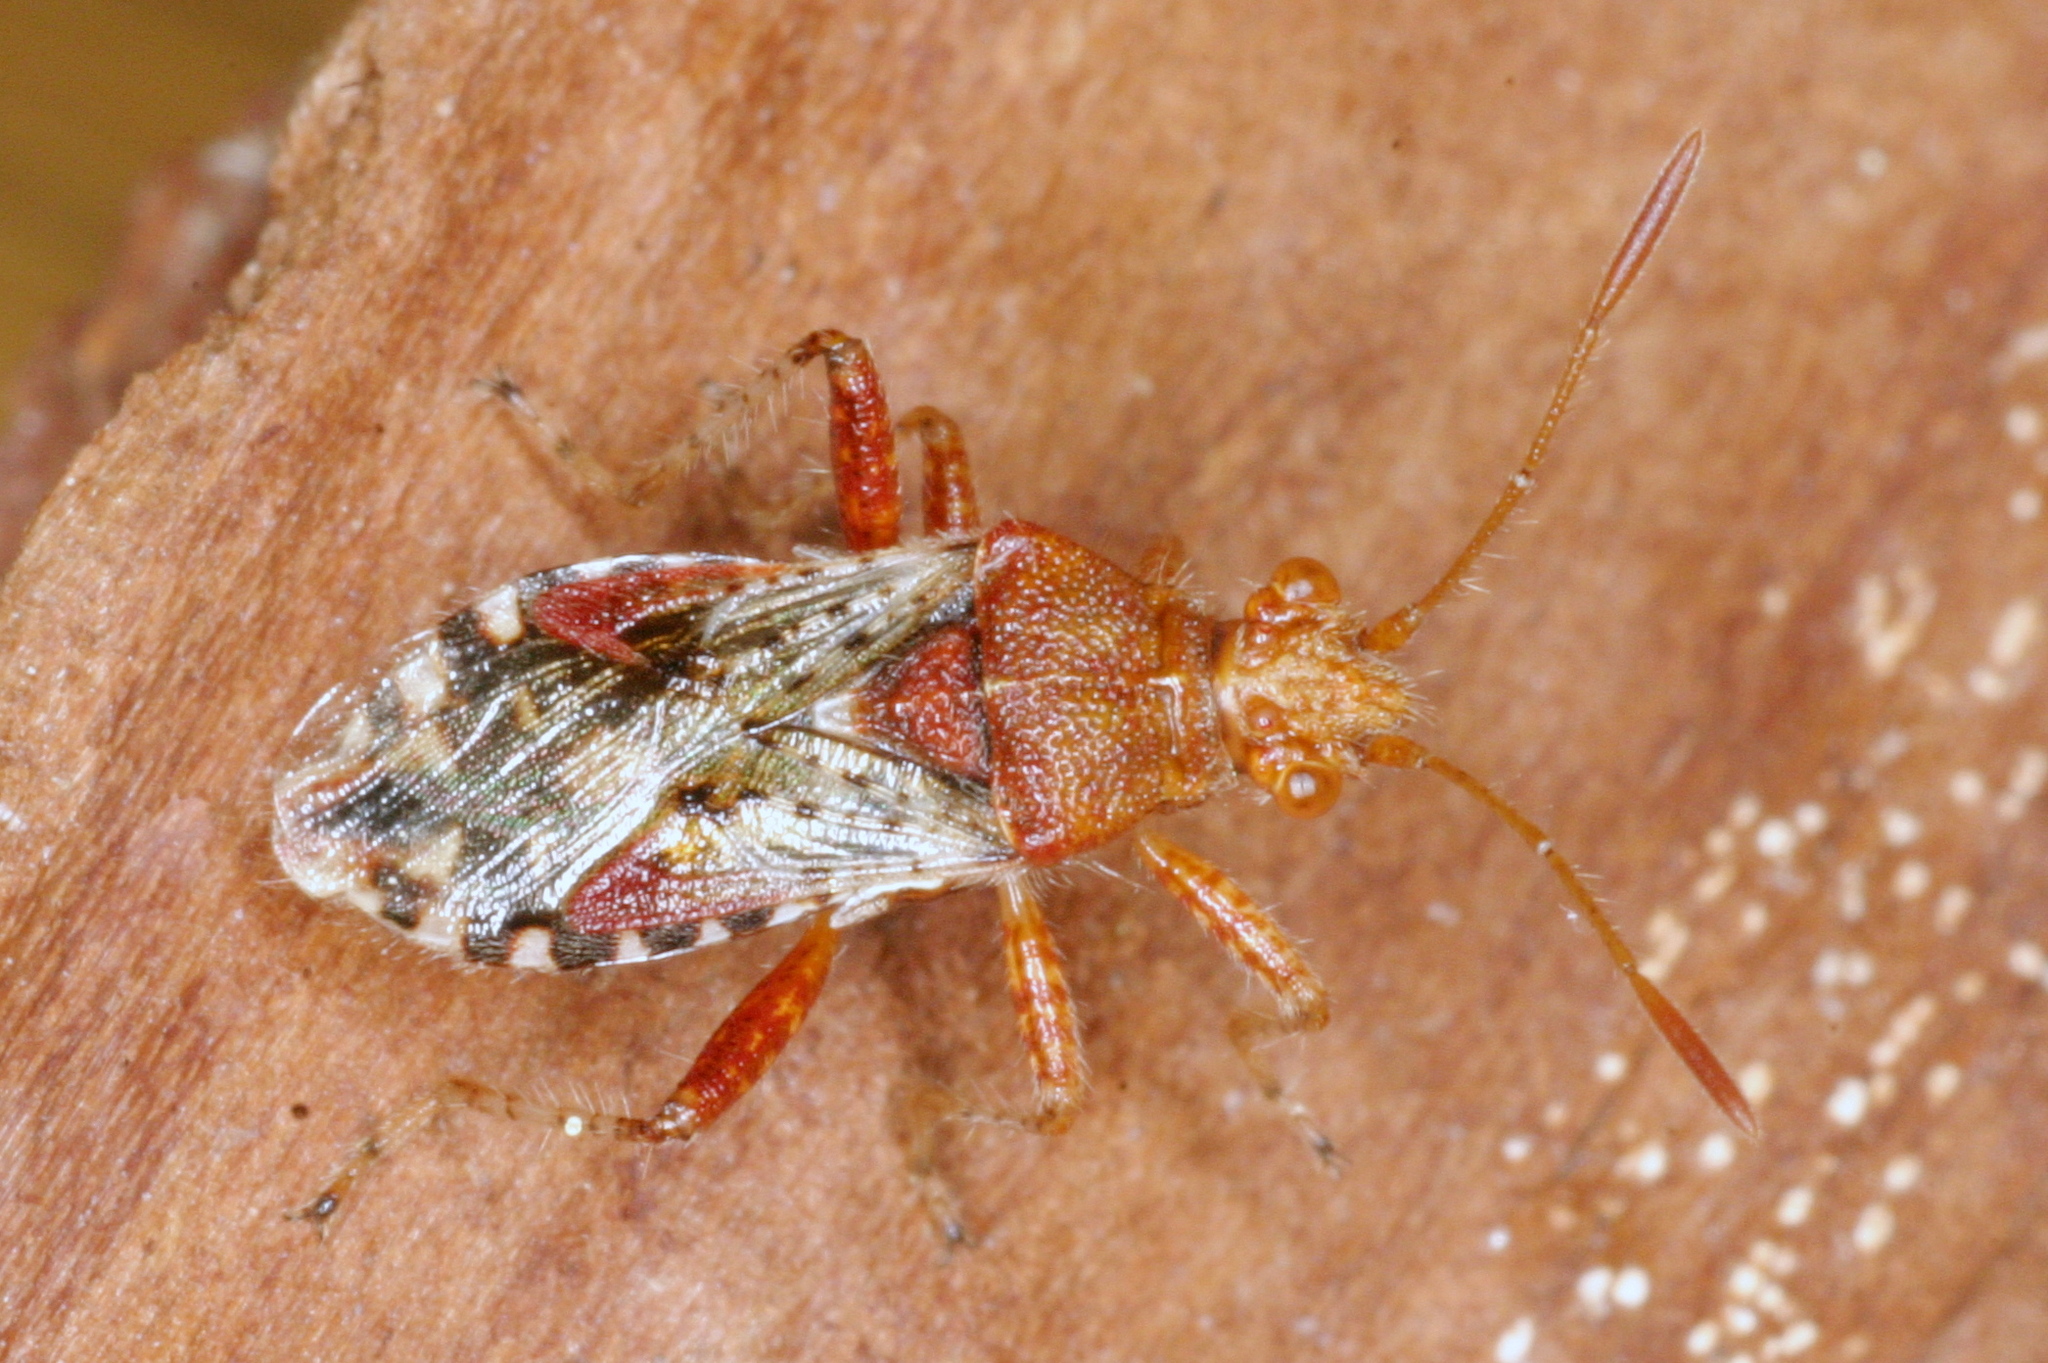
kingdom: Animalia
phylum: Arthropoda
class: Insecta
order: Hemiptera
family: Rhopalidae
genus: Rhopalus
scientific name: Rhopalus subrufus
